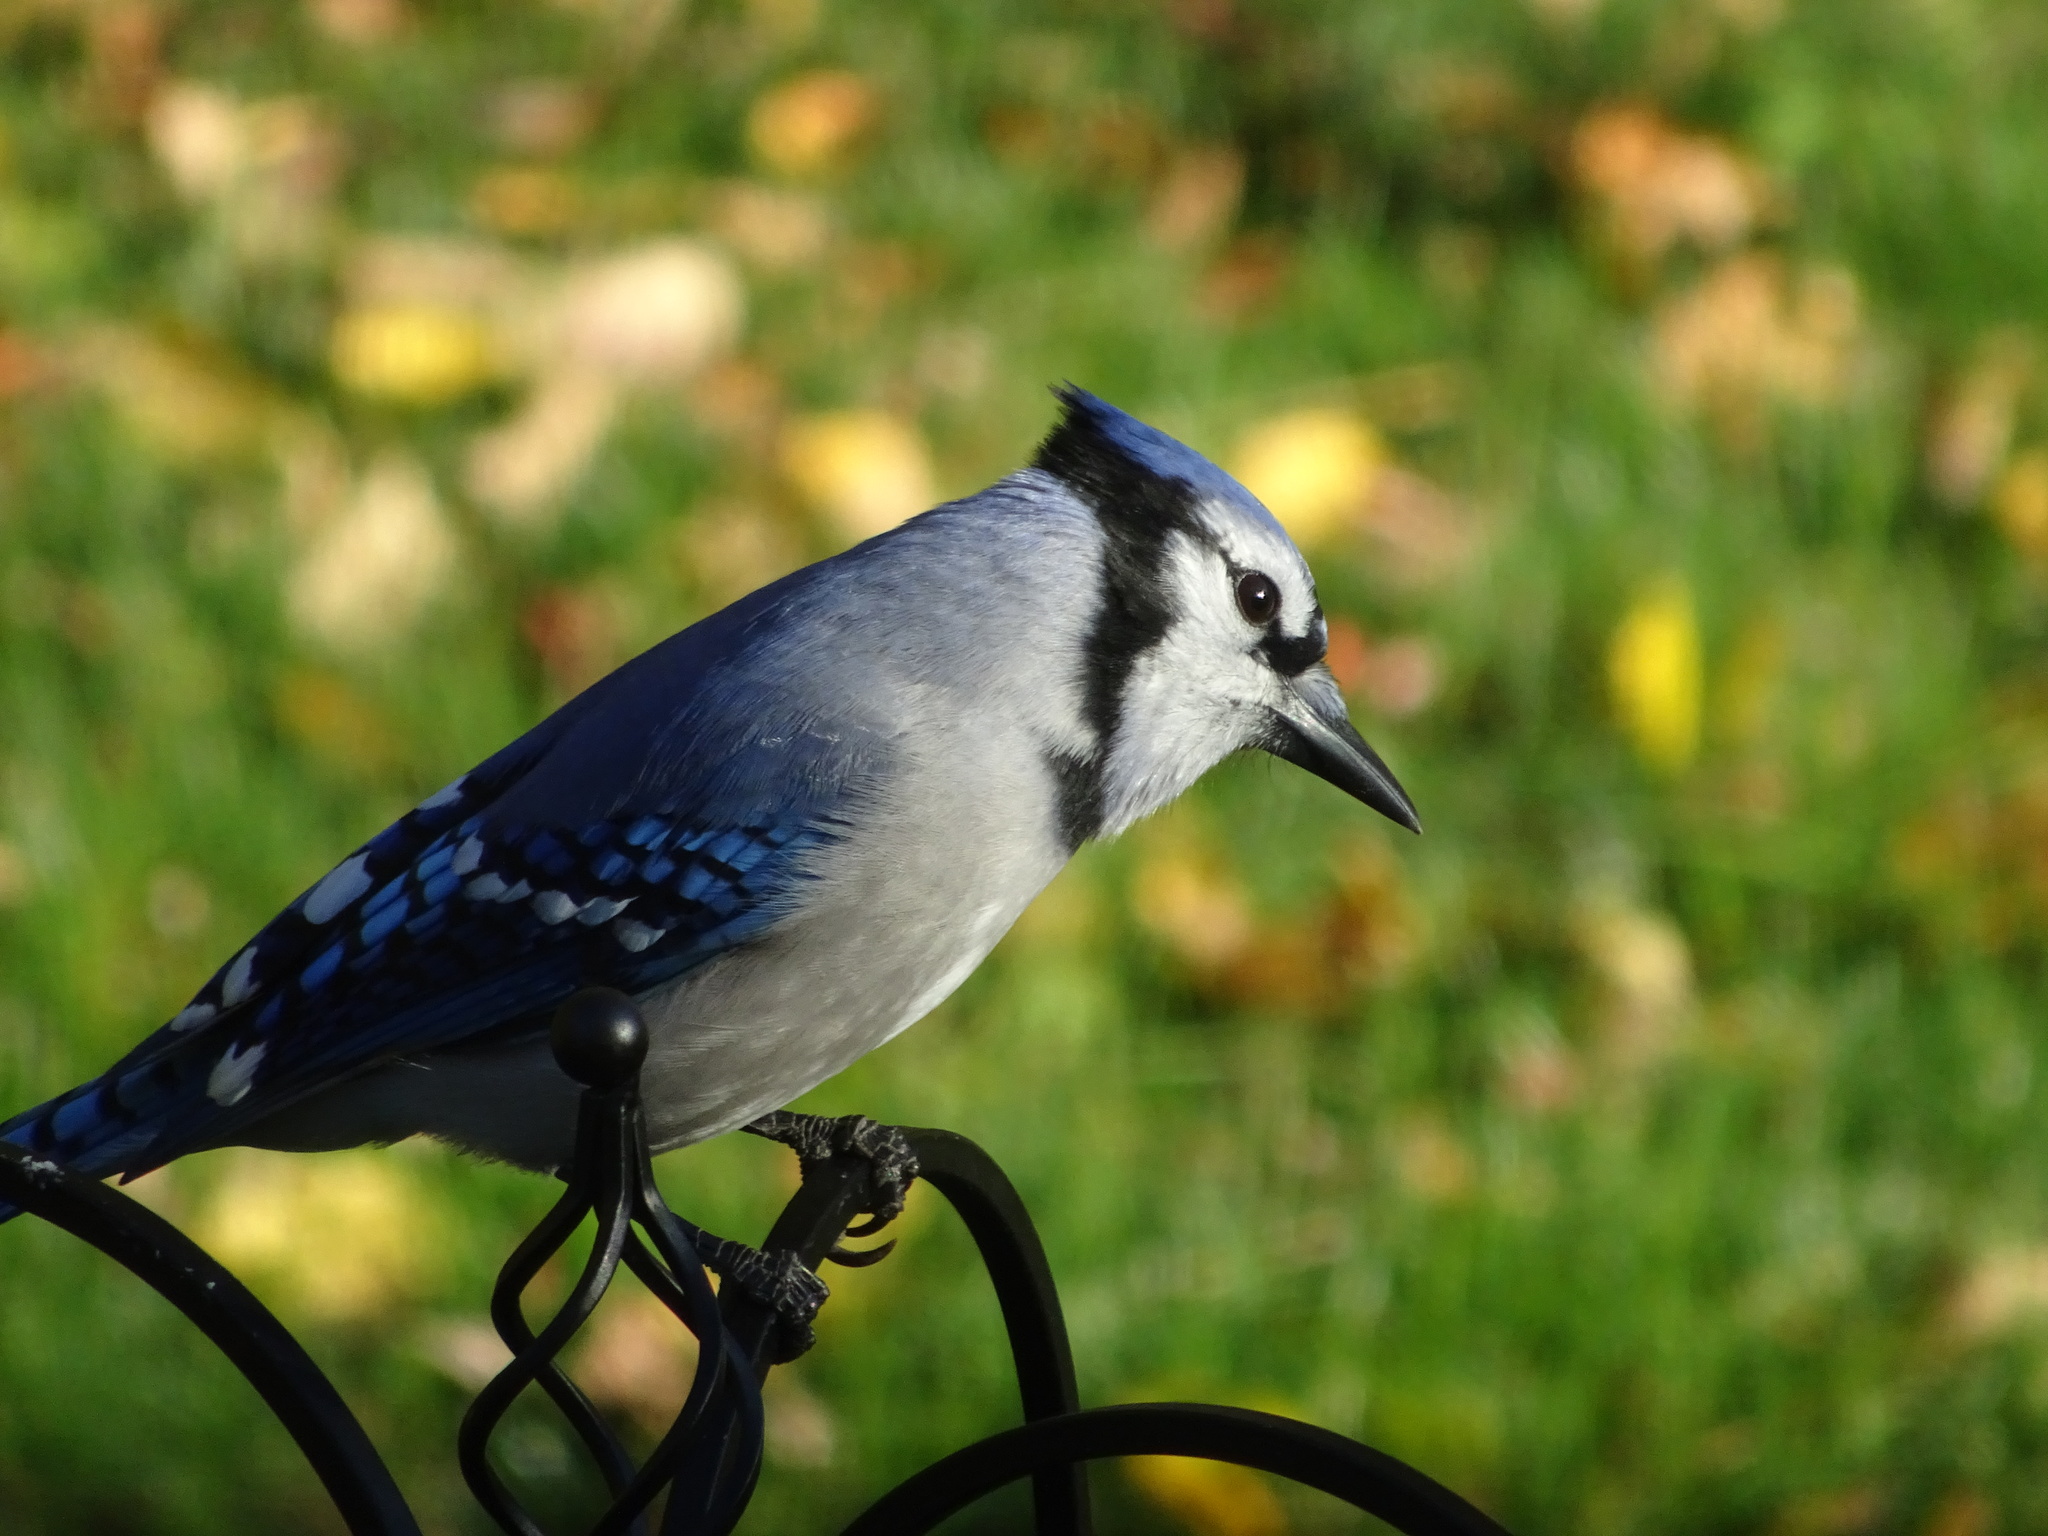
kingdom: Animalia
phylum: Chordata
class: Aves
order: Passeriformes
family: Corvidae
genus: Cyanocitta
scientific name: Cyanocitta cristata
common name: Blue jay
